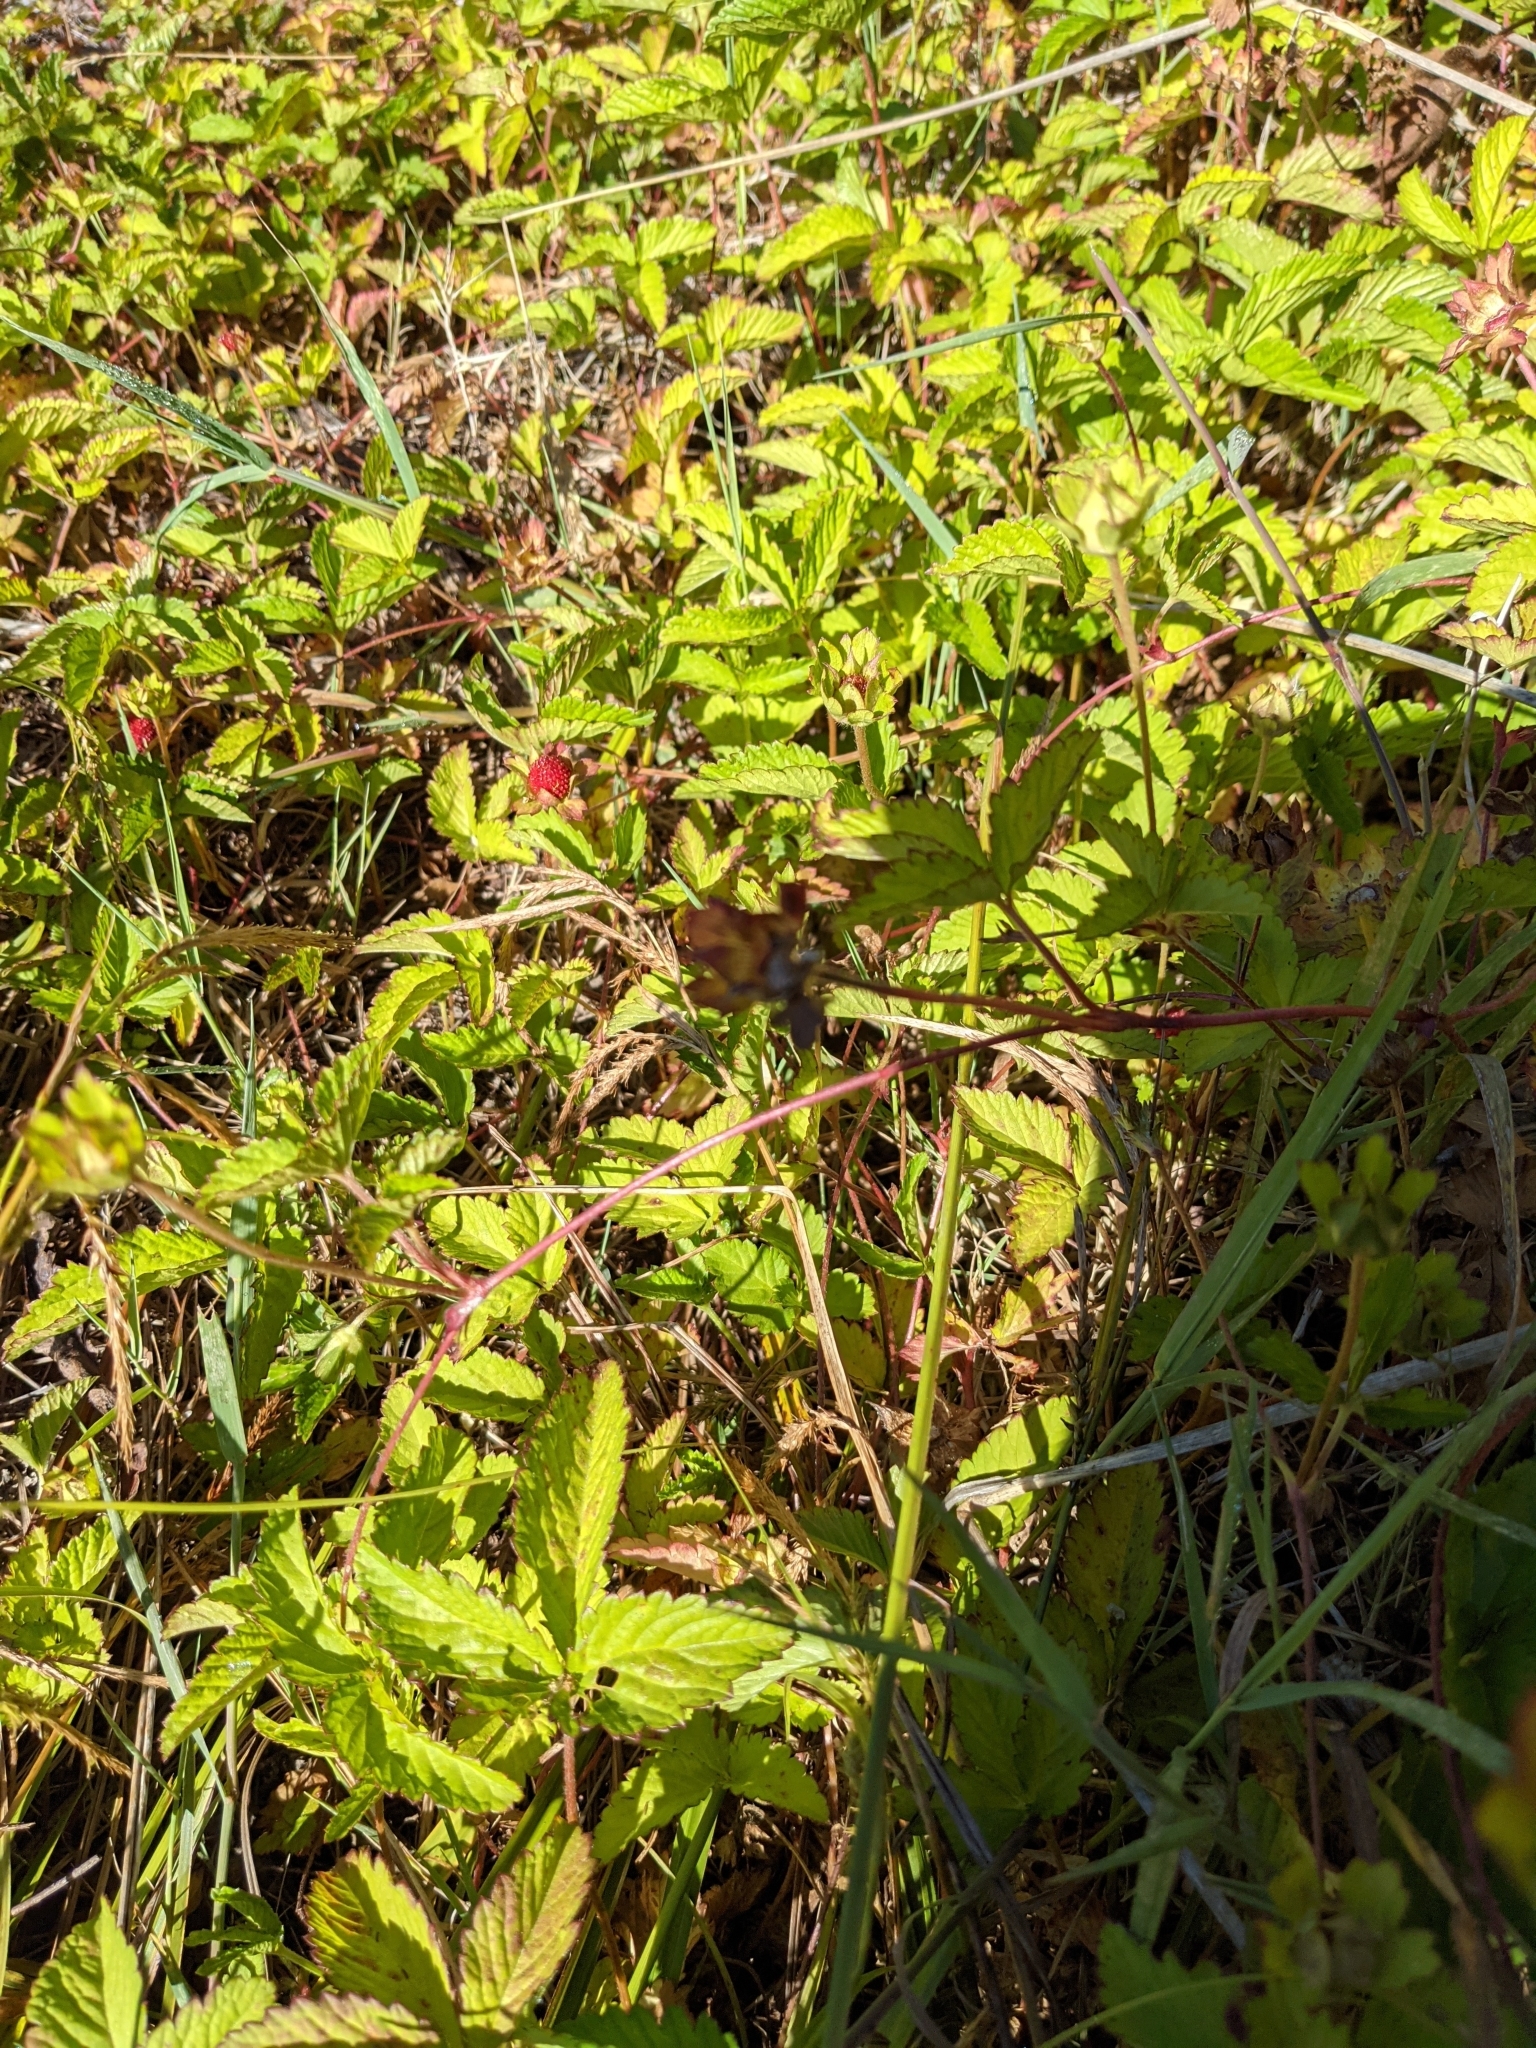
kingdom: Plantae
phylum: Tracheophyta
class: Magnoliopsida
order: Rosales
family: Rosaceae
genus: Potentilla
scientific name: Potentilla indica
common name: Yellow-flowered strawberry
